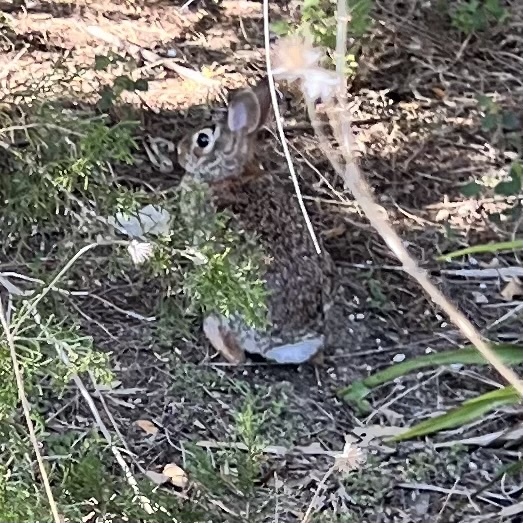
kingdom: Animalia
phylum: Chordata
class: Mammalia
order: Lagomorpha
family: Leporidae
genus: Sylvilagus
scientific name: Sylvilagus floridanus
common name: Eastern cottontail
